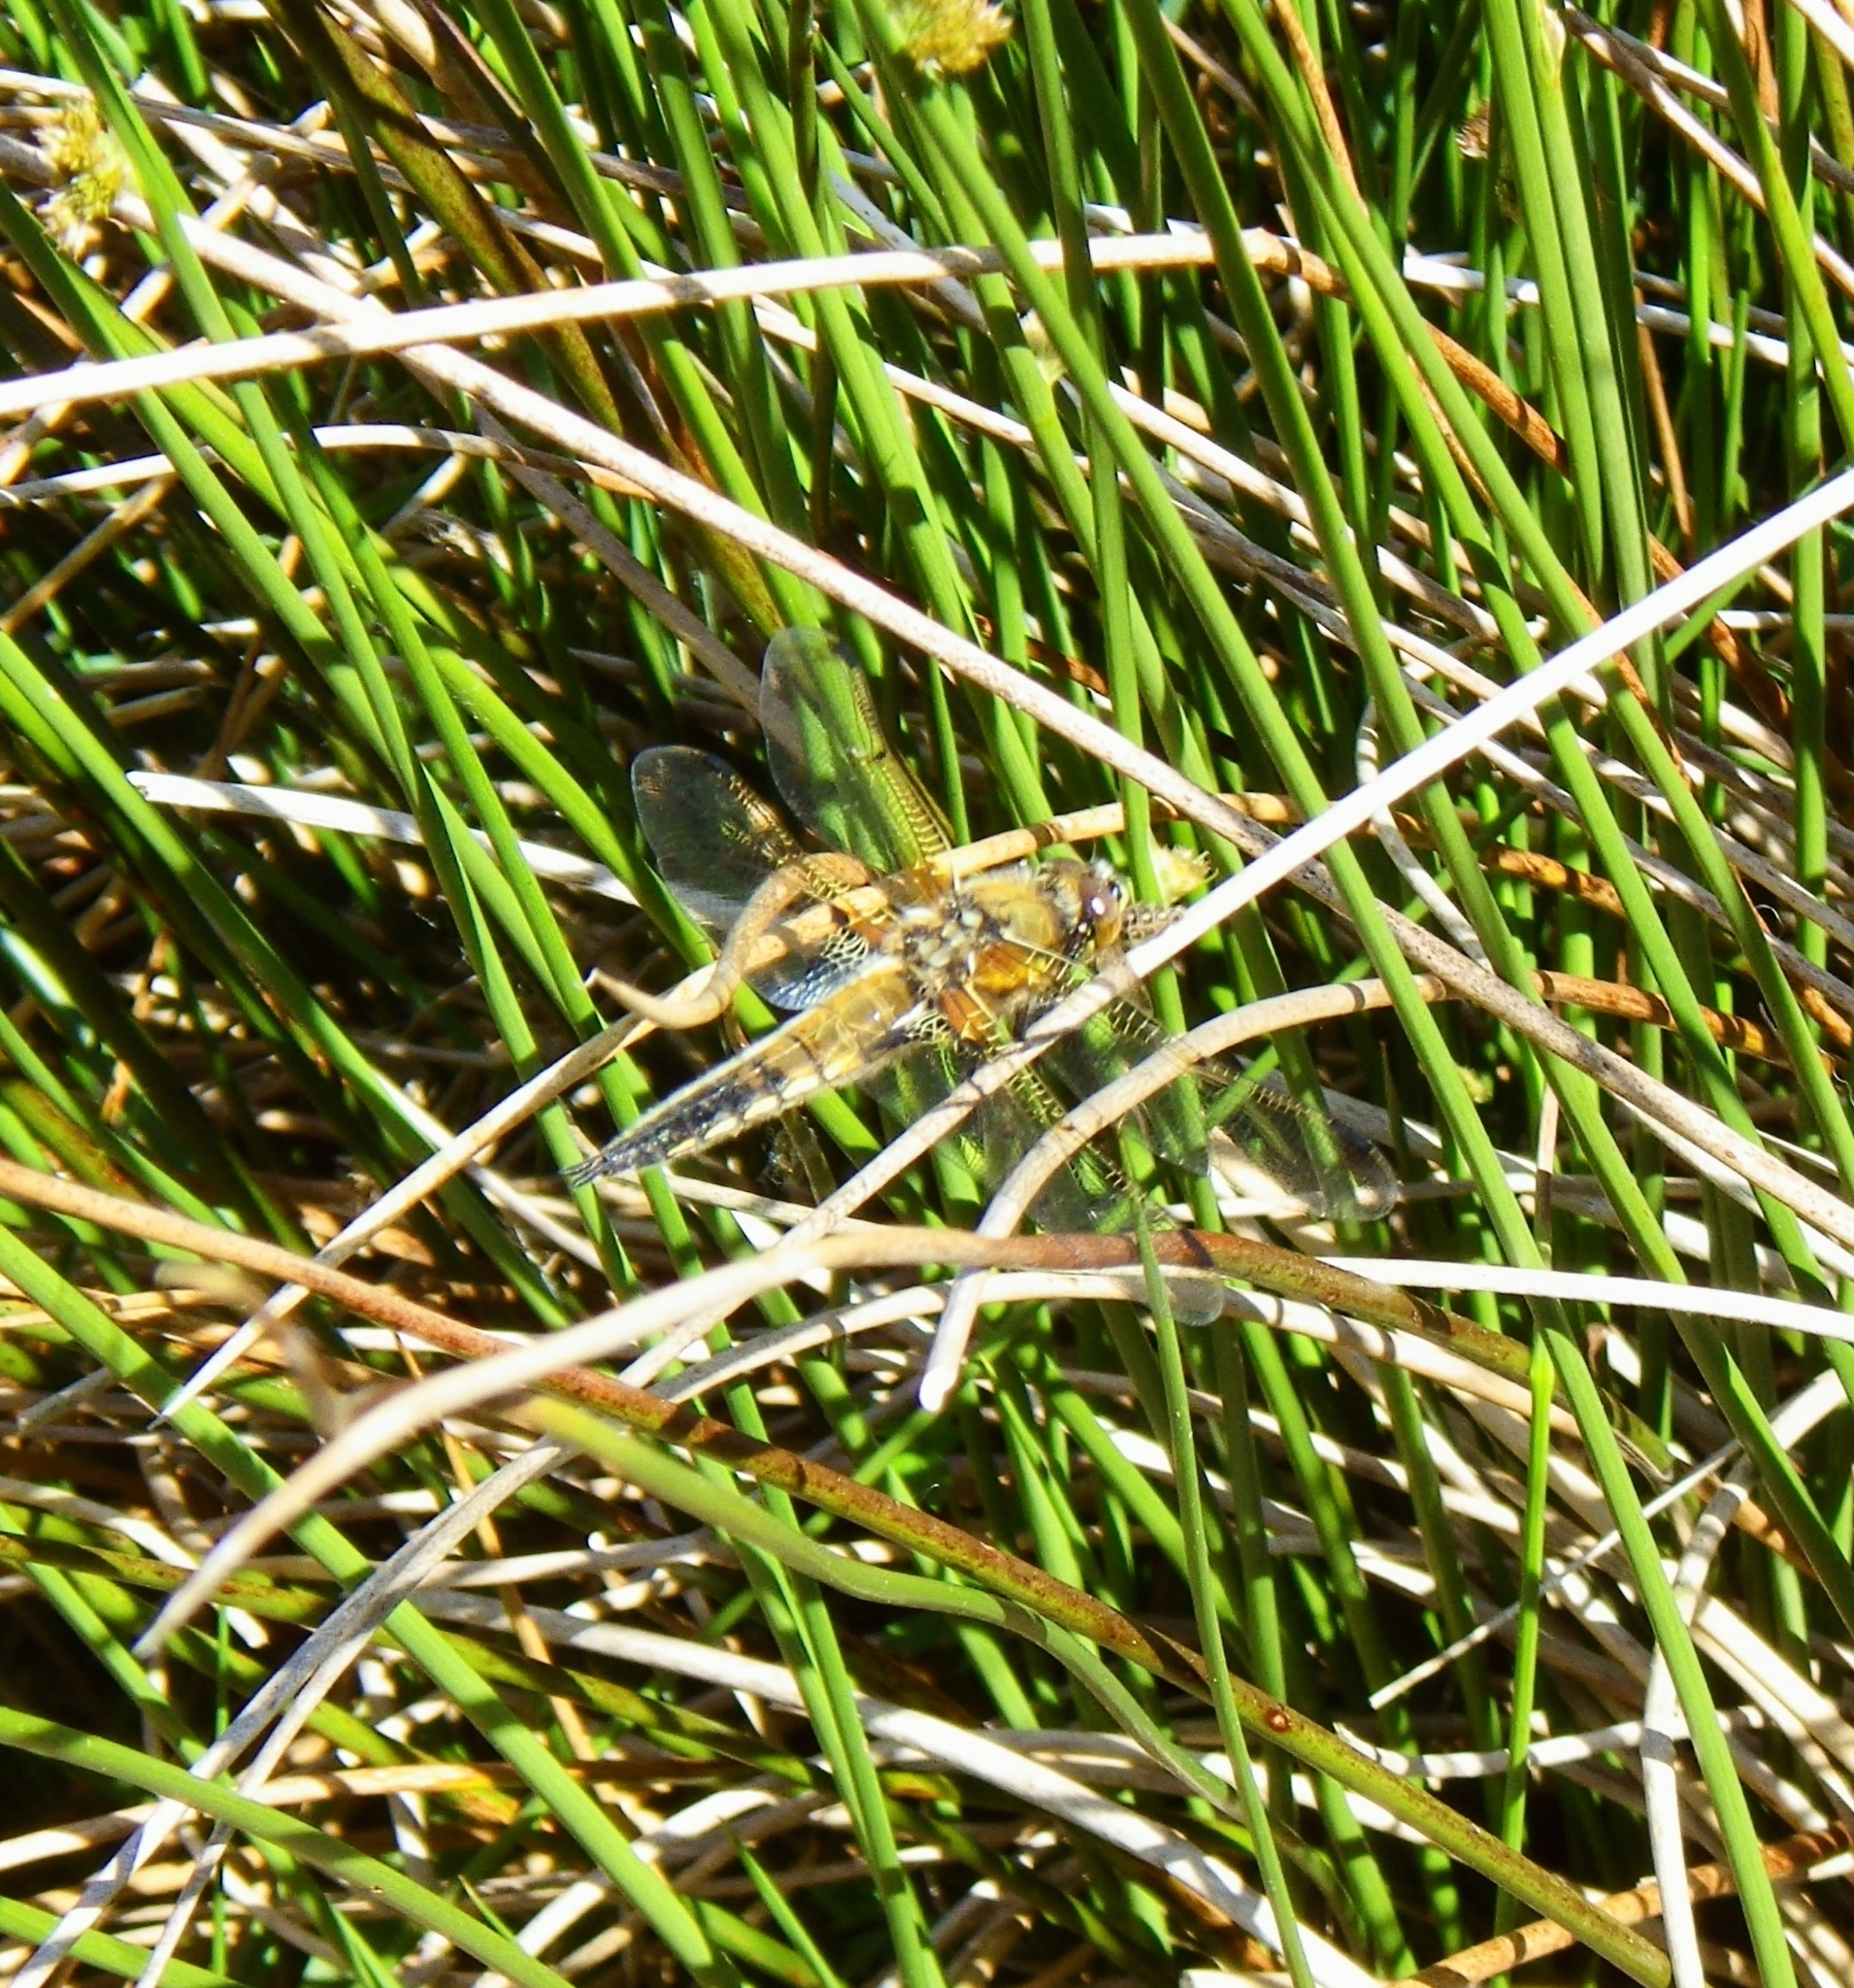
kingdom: Animalia
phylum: Arthropoda
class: Insecta
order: Odonata
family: Libellulidae
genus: Libellula
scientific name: Libellula quadrimaculata
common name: Four-spotted chaser
